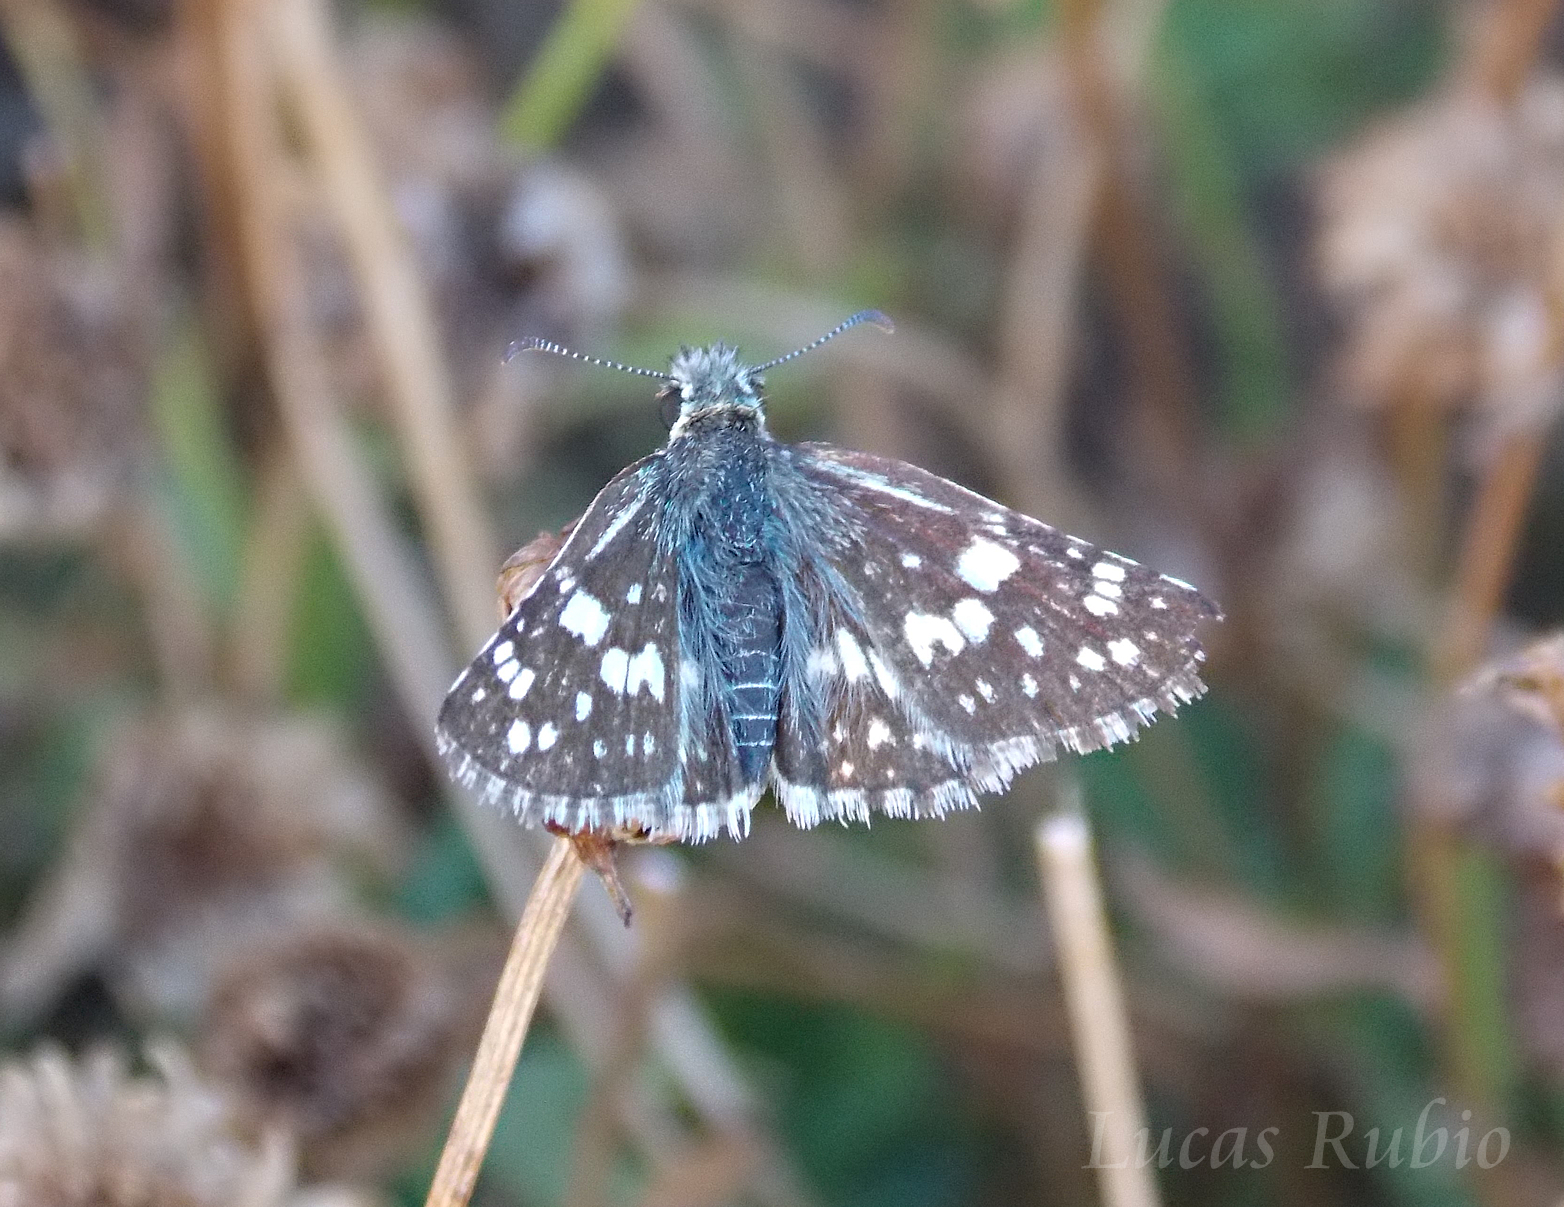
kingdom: Animalia
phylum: Arthropoda
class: Insecta
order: Lepidoptera
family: Hesperiidae
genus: Burnsius
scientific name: Burnsius orcynoides
